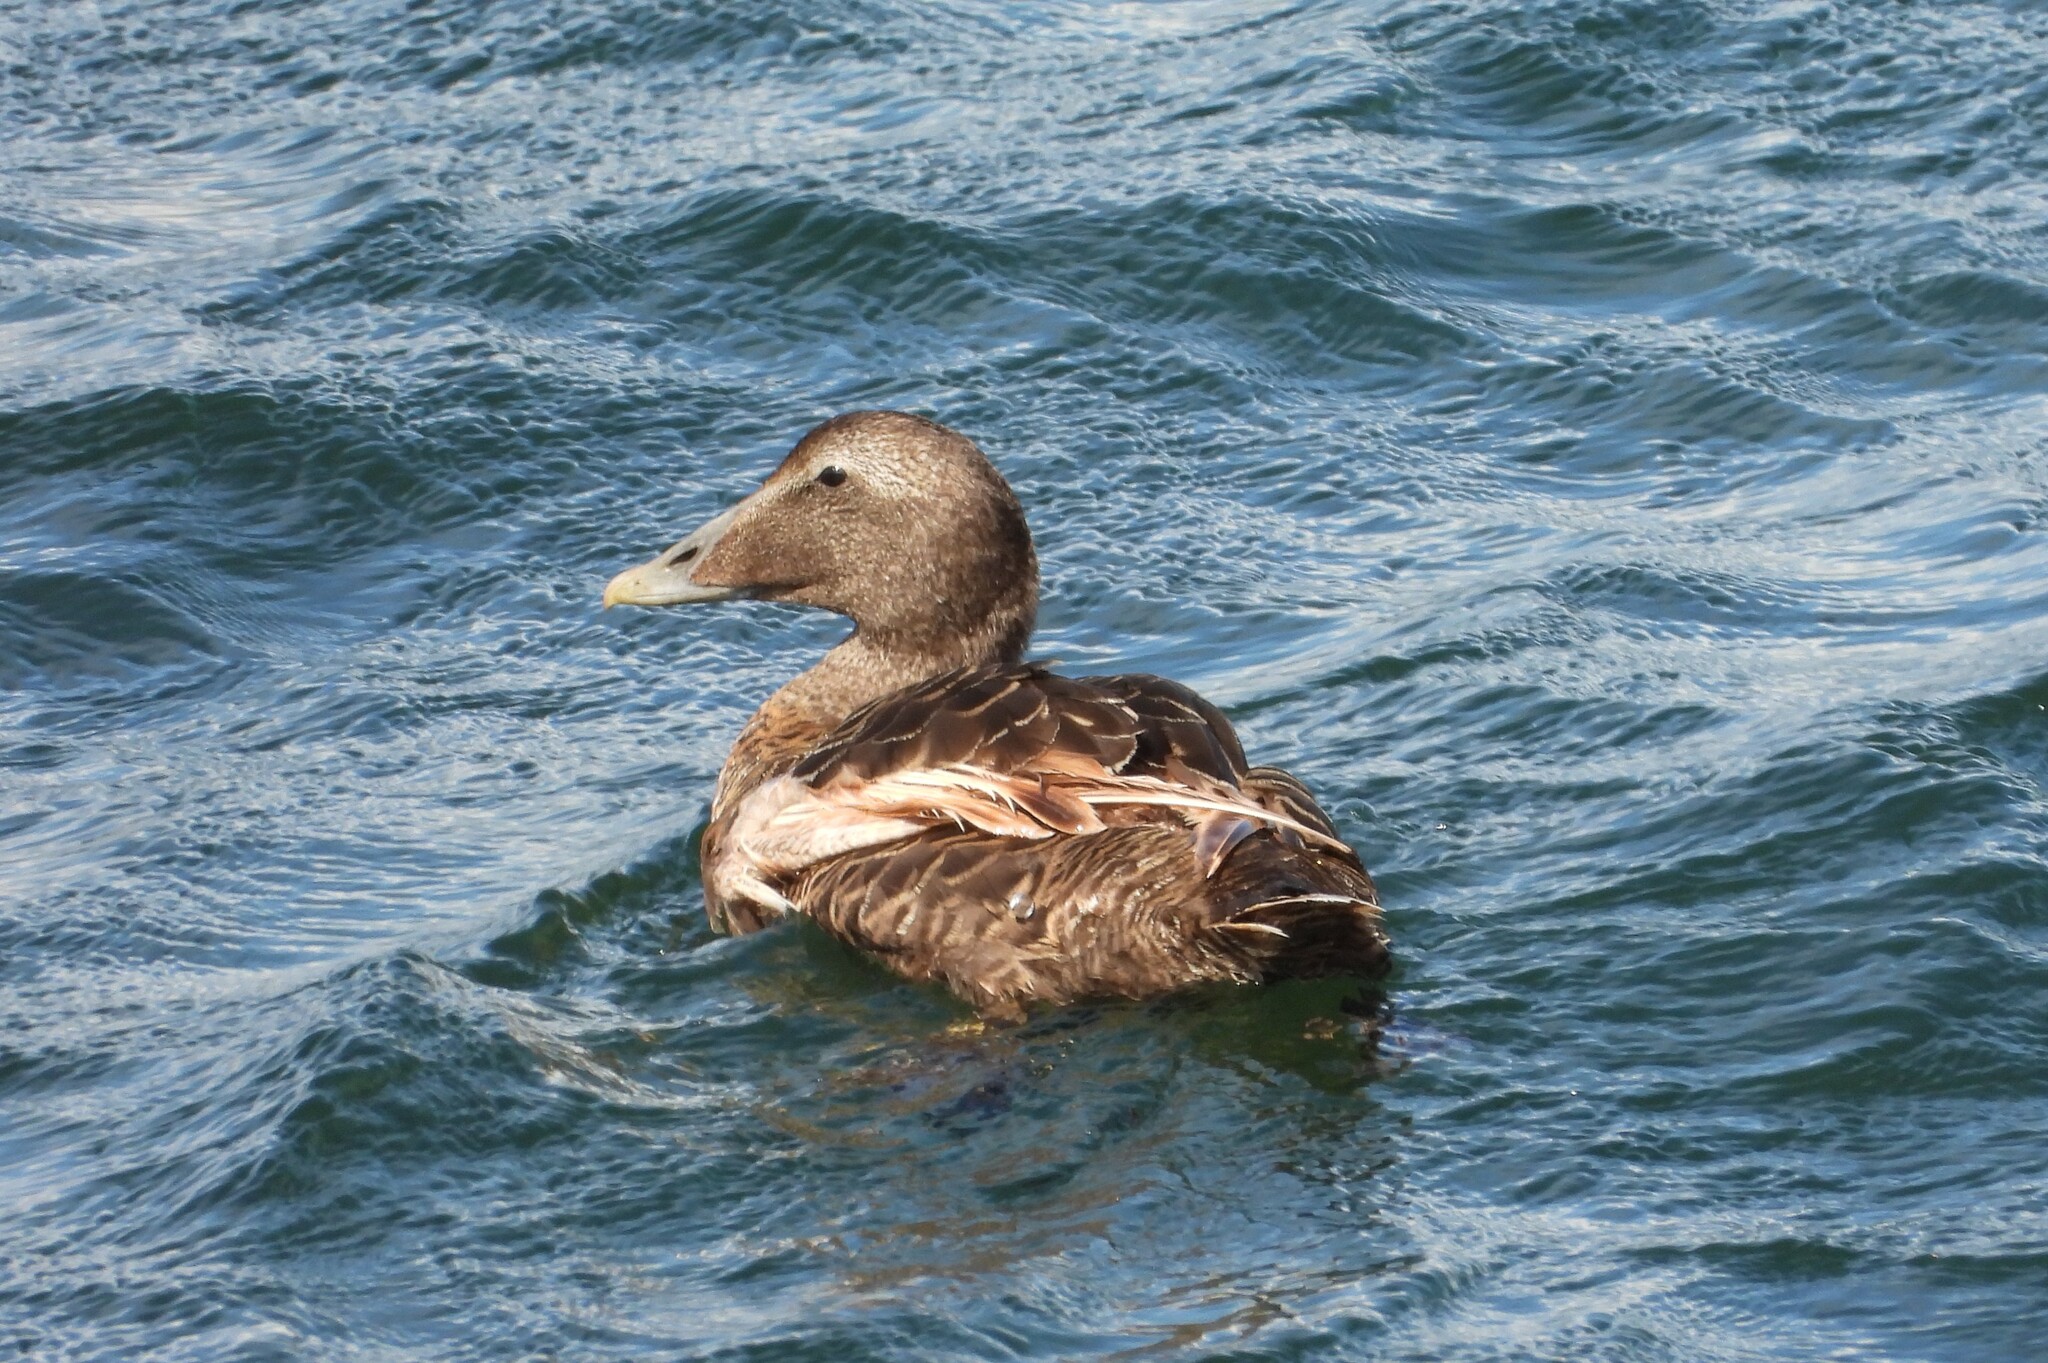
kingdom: Animalia
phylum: Chordata
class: Aves
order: Anseriformes
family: Anatidae
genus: Somateria
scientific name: Somateria mollissima
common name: Common eider
